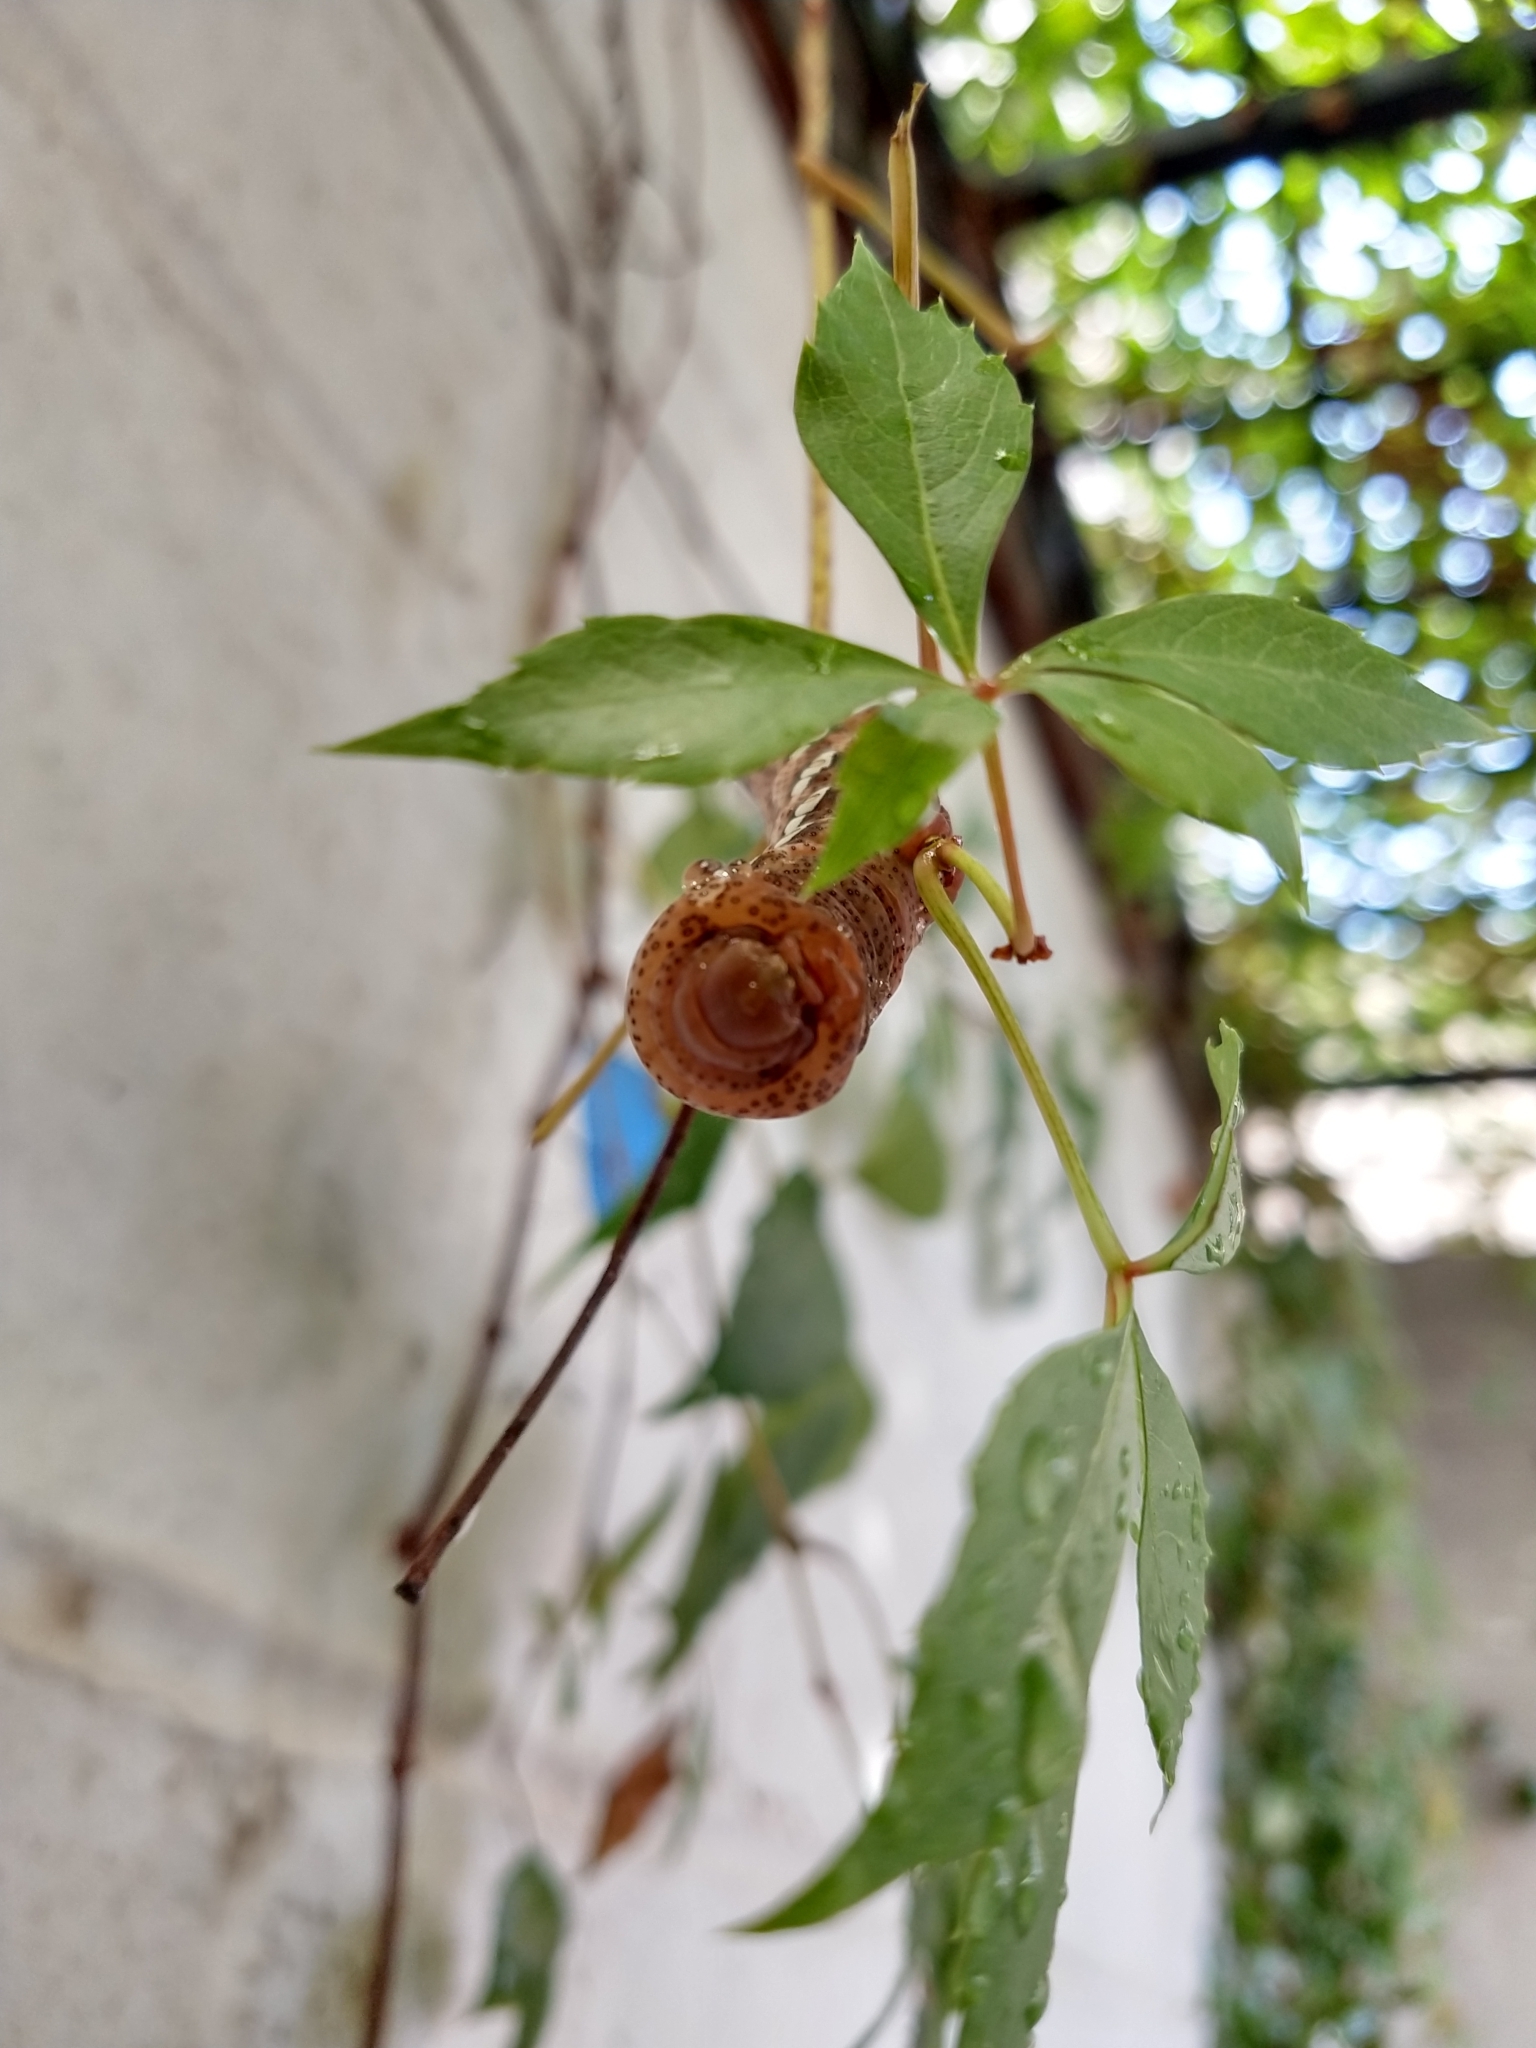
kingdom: Animalia
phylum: Arthropoda
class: Insecta
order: Lepidoptera
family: Sphingidae
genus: Eumorpha
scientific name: Eumorpha achemon
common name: Achemon sphinx
